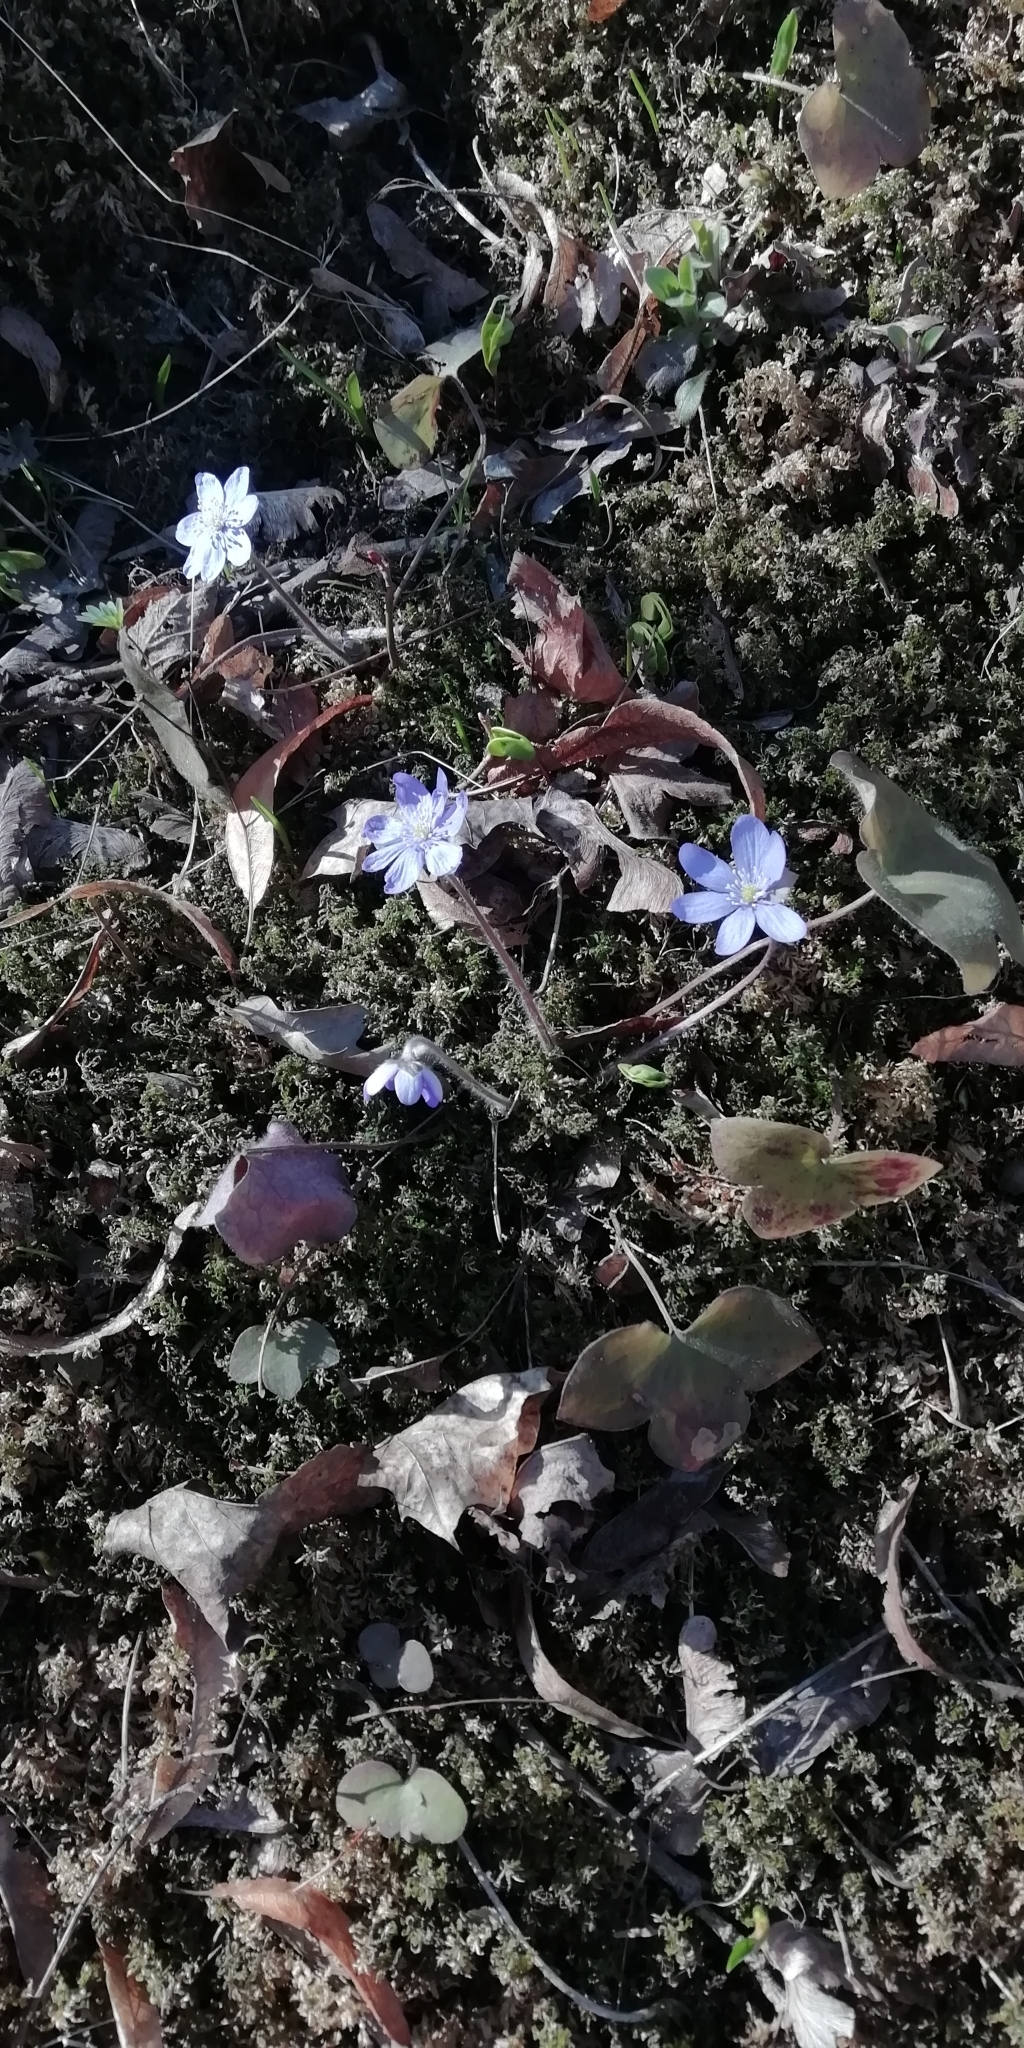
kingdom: Plantae
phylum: Tracheophyta
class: Magnoliopsida
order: Ranunculales
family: Ranunculaceae
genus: Hepatica
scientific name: Hepatica nobilis
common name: Liverleaf
